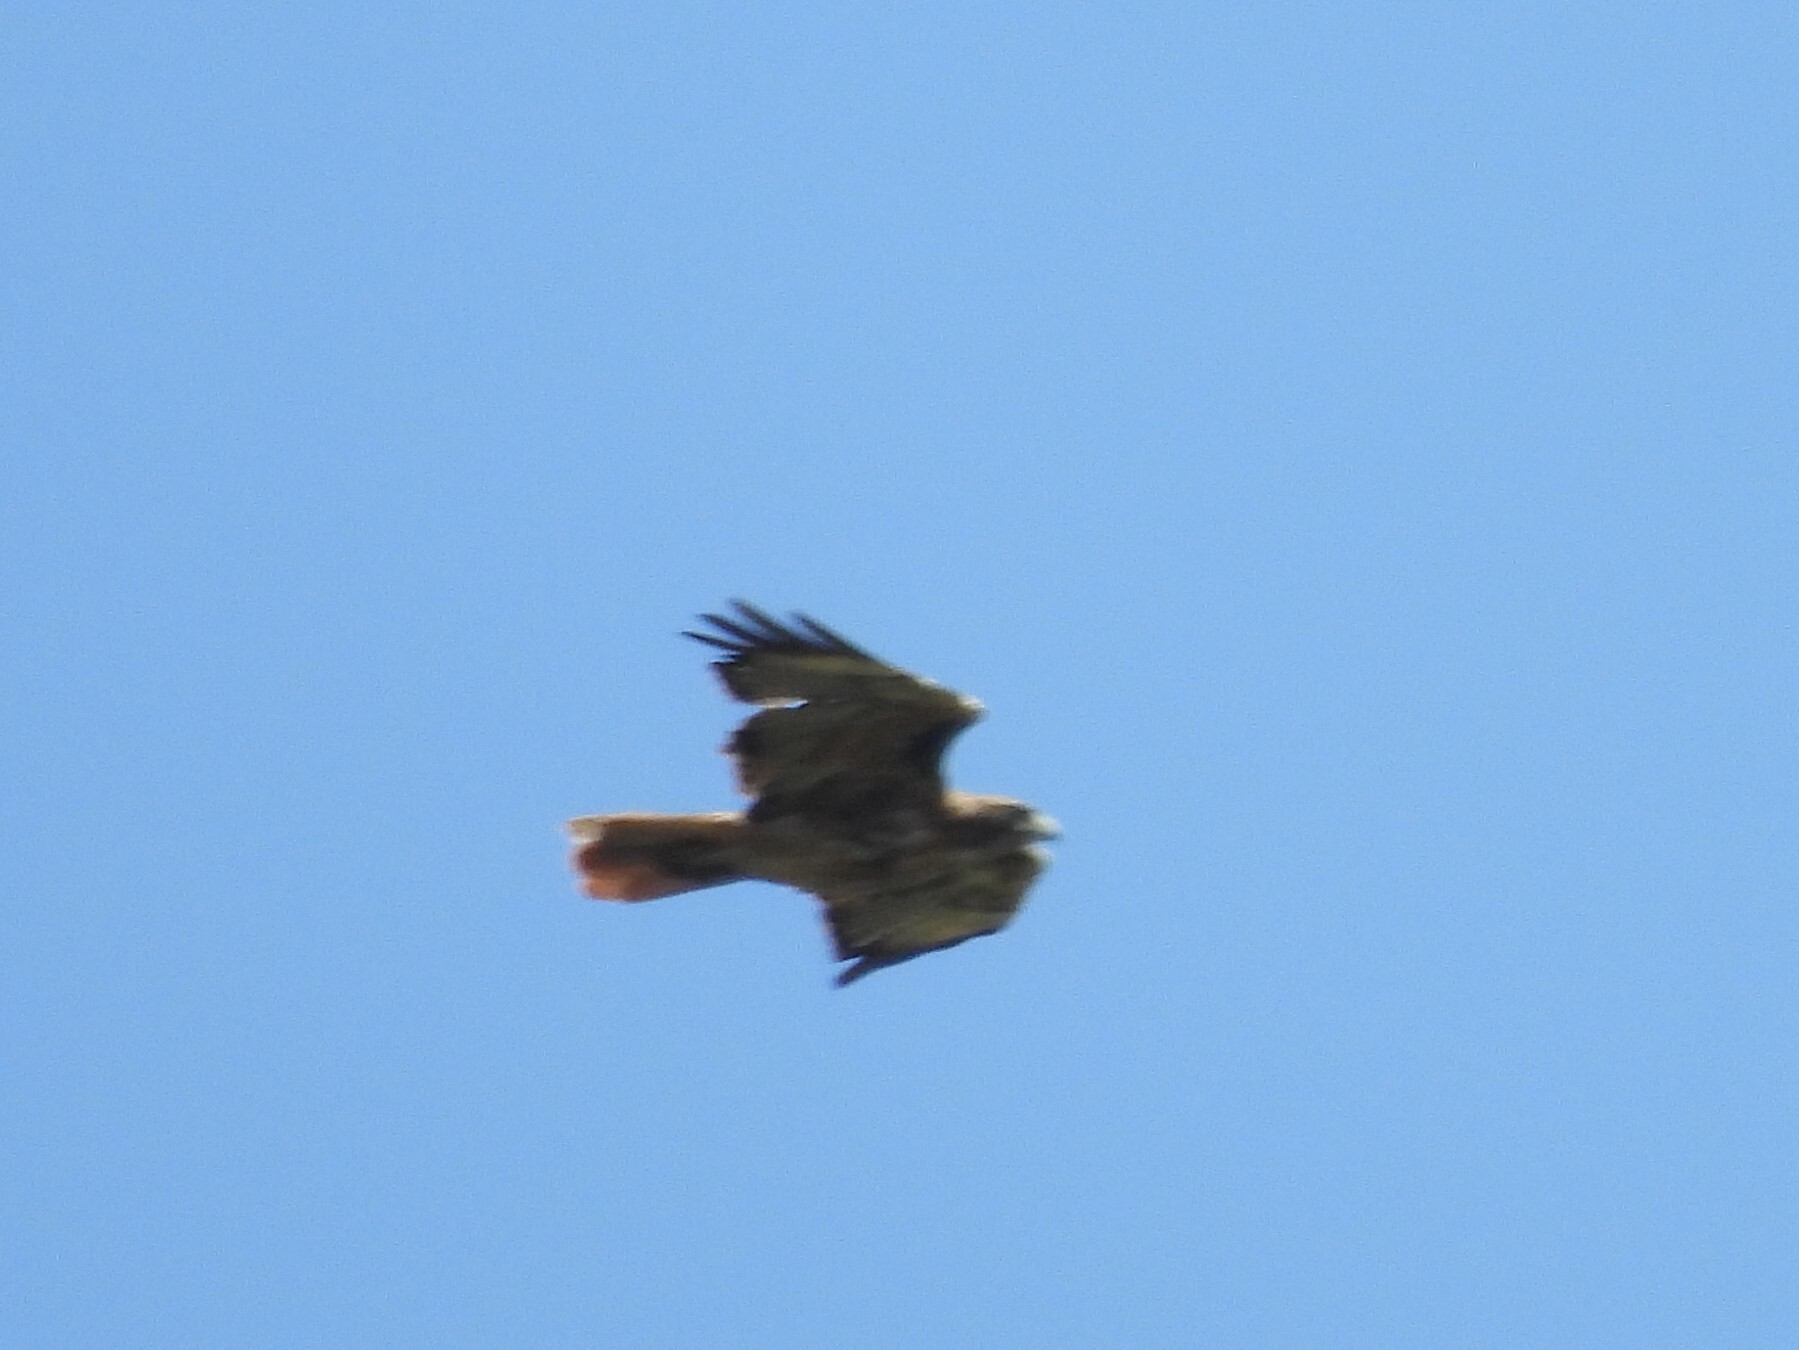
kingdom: Animalia
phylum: Chordata
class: Aves
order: Accipitriformes
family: Accipitridae
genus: Buteo
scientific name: Buteo jamaicensis
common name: Red-tailed hawk
